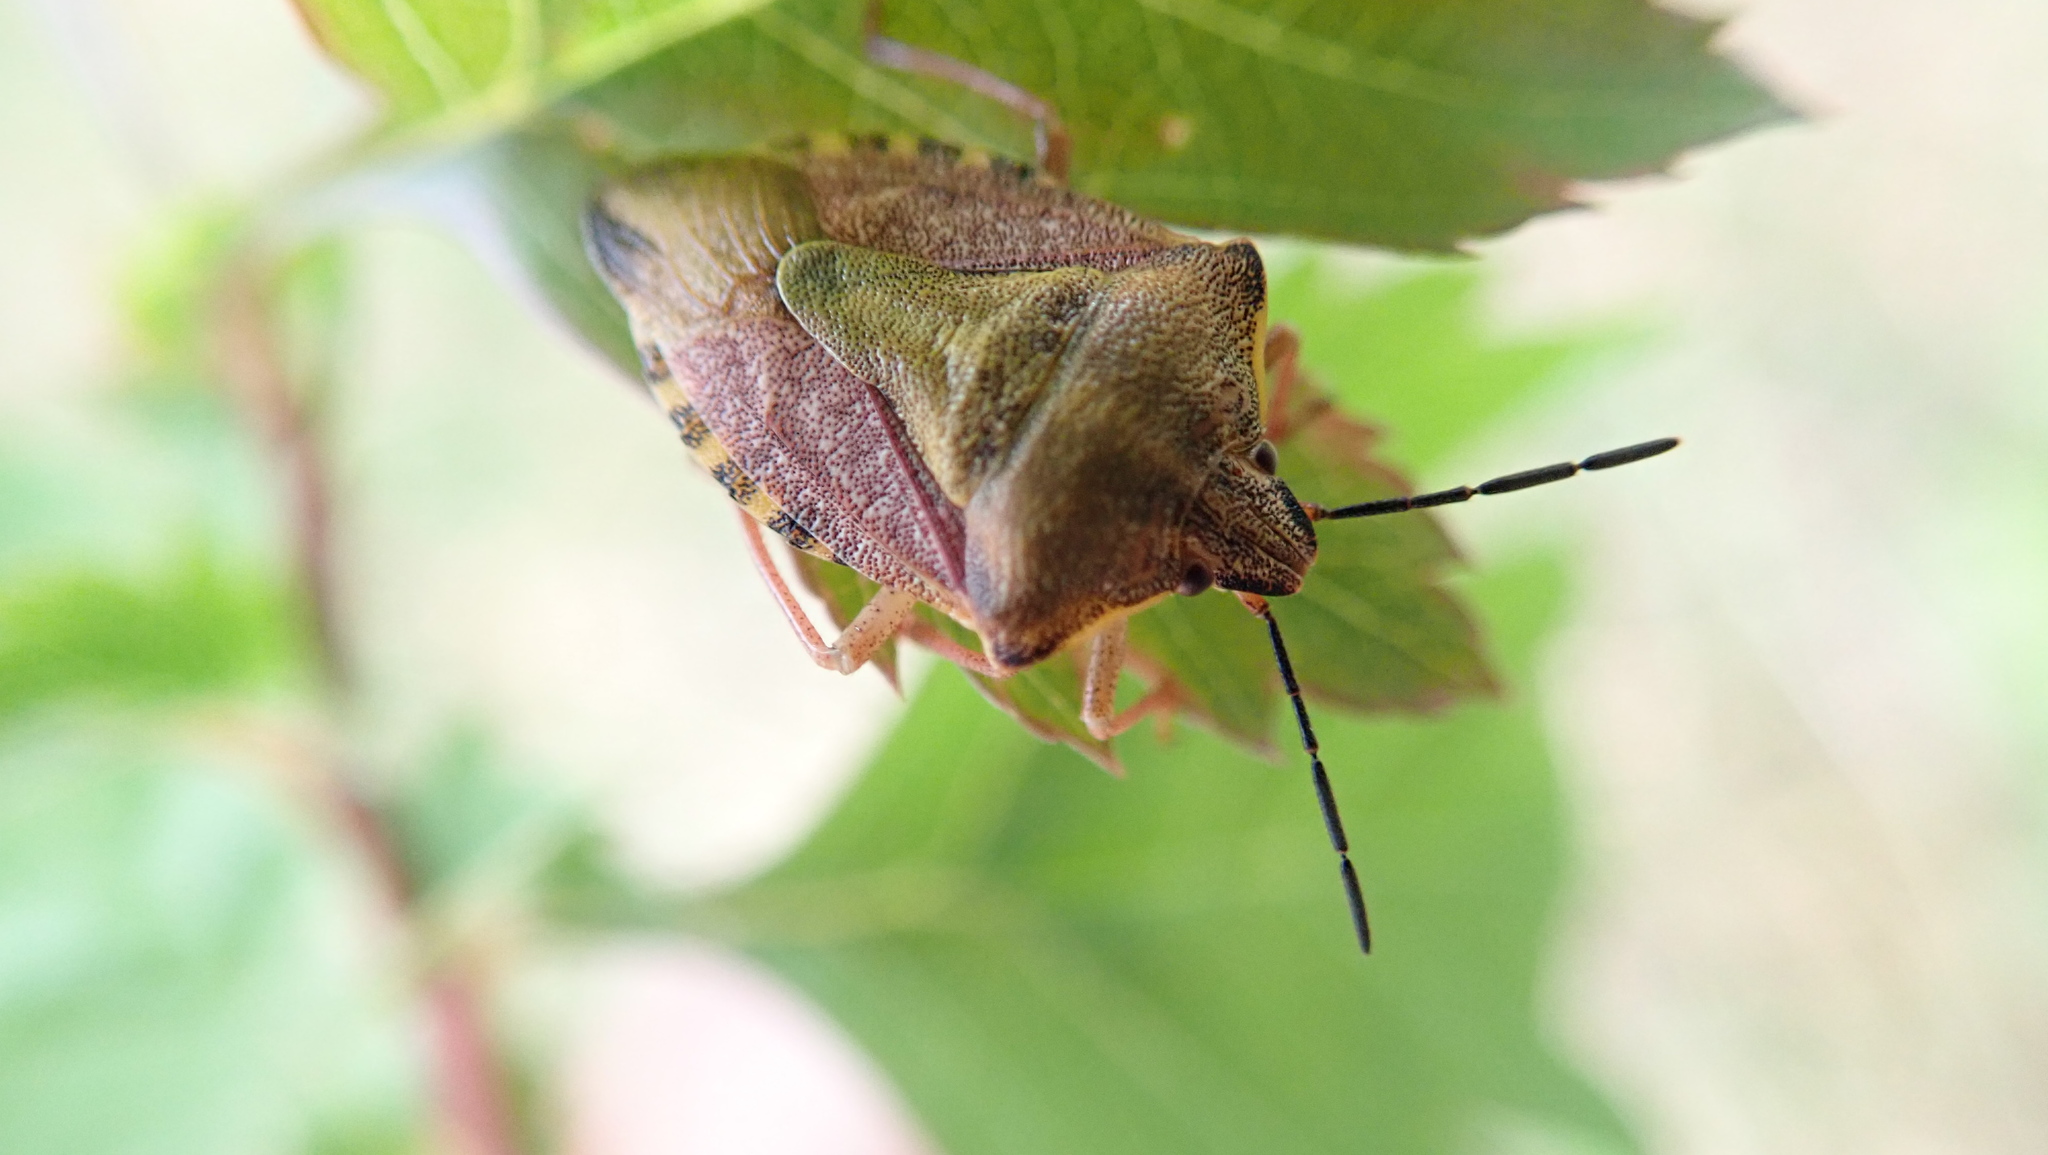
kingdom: Animalia
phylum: Arthropoda
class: Insecta
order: Hemiptera
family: Pentatomidae
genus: Carpocoris
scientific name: Carpocoris purpureipennis
